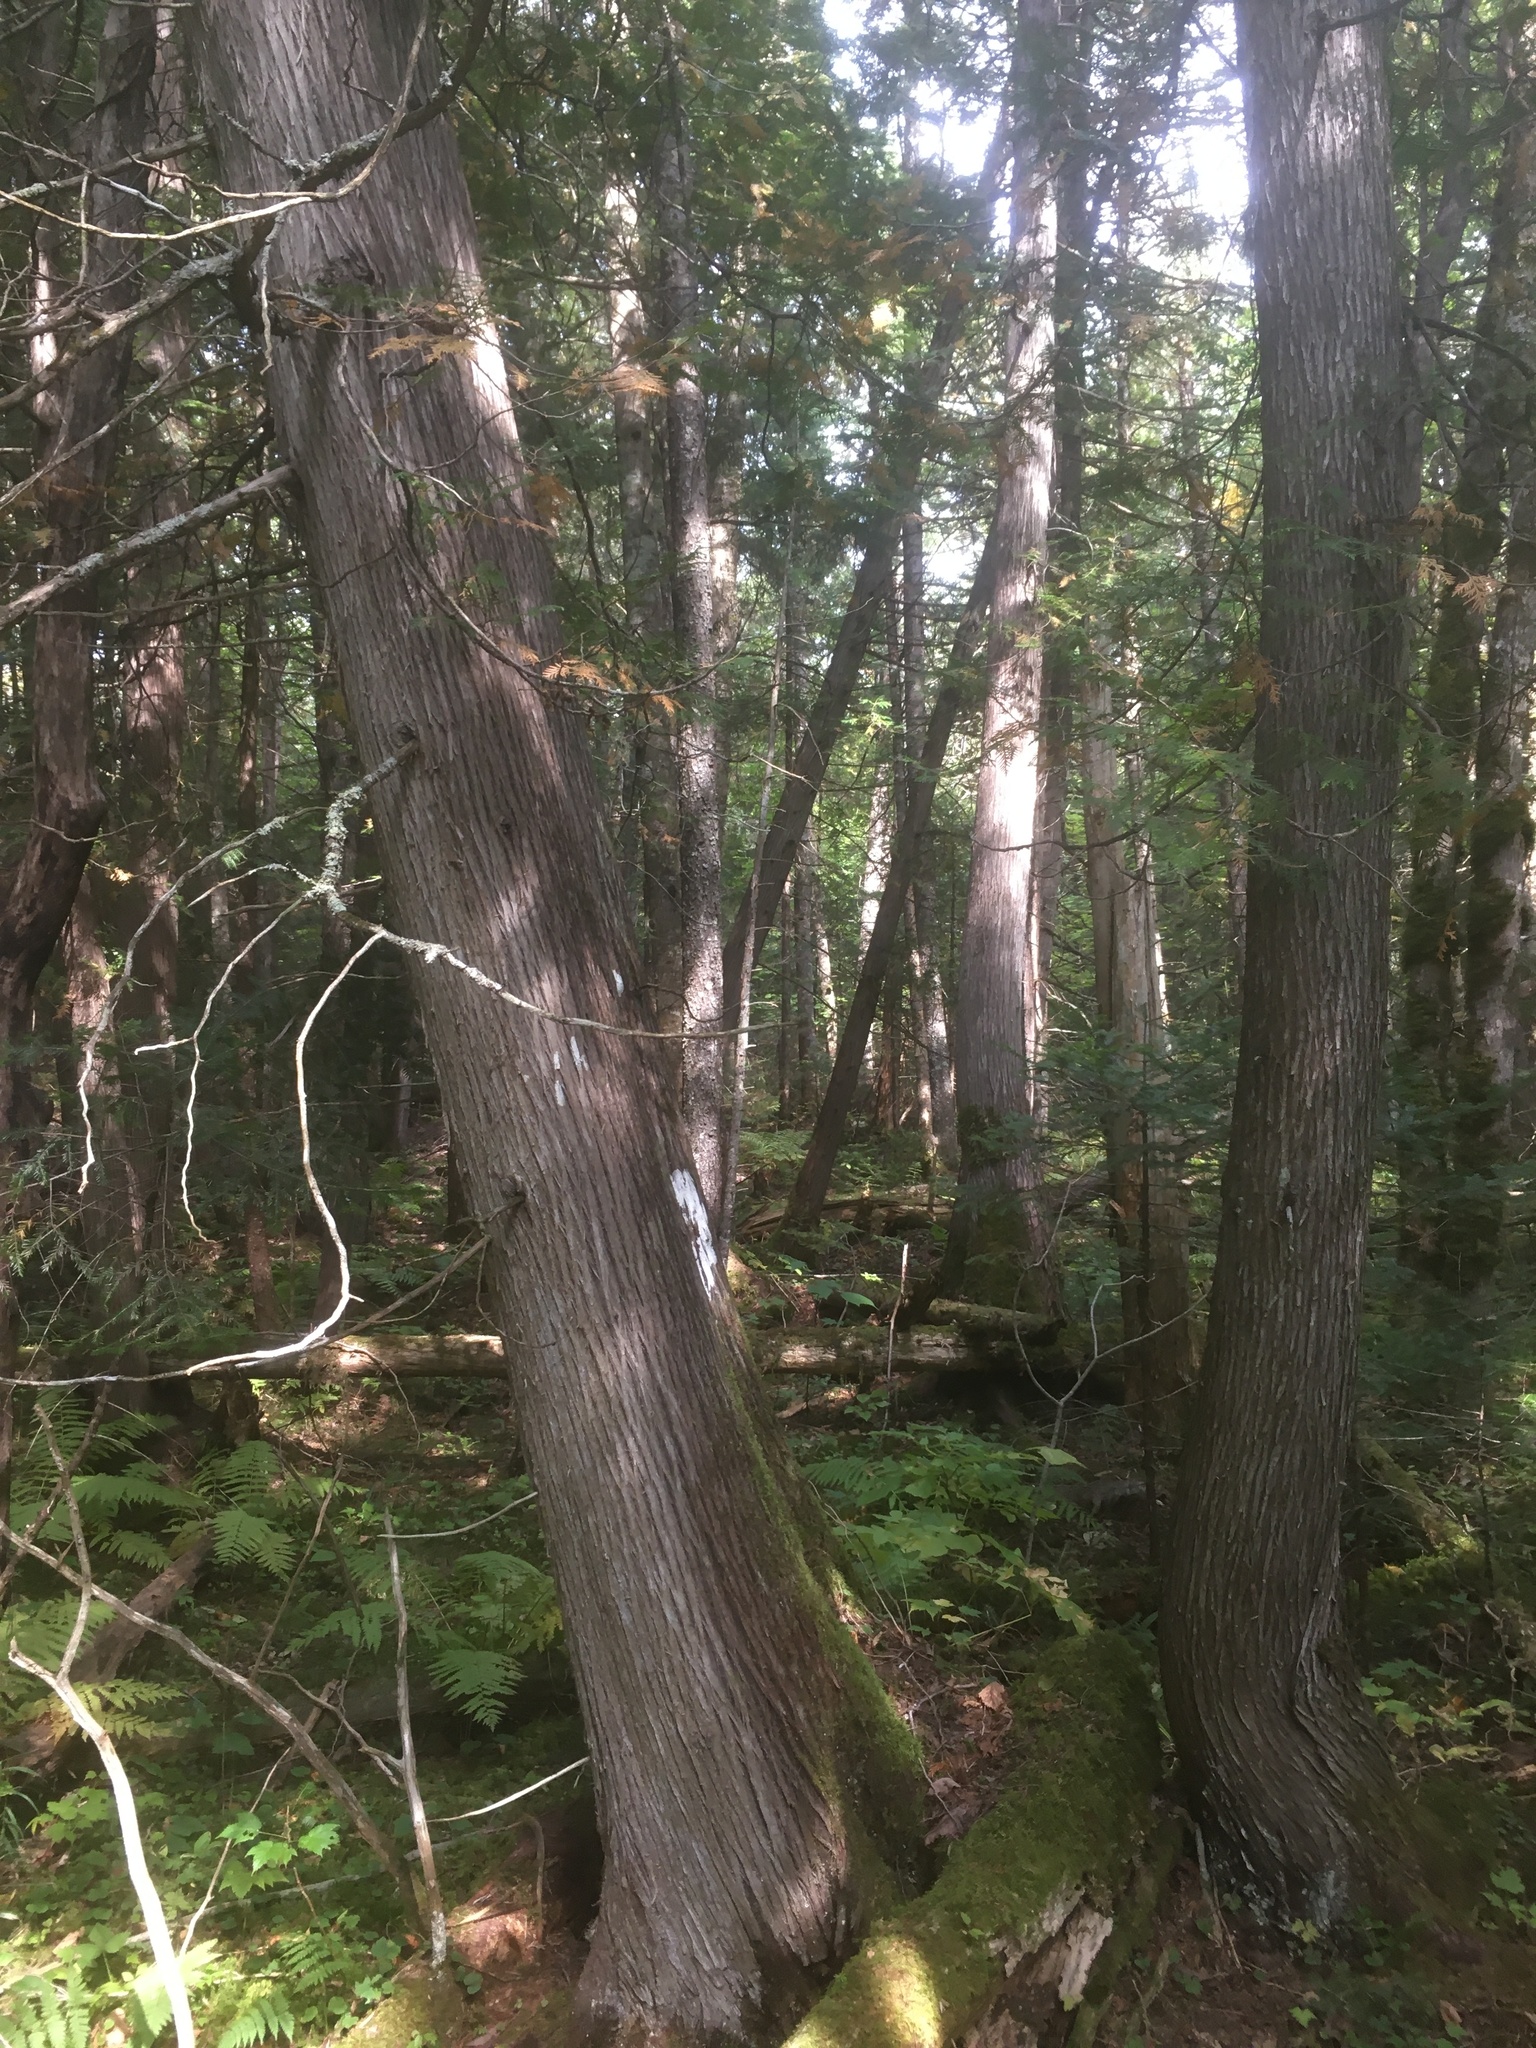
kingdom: Plantae
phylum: Tracheophyta
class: Pinopsida
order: Pinales
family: Cupressaceae
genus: Thuja
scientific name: Thuja occidentalis
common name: Northern white-cedar
